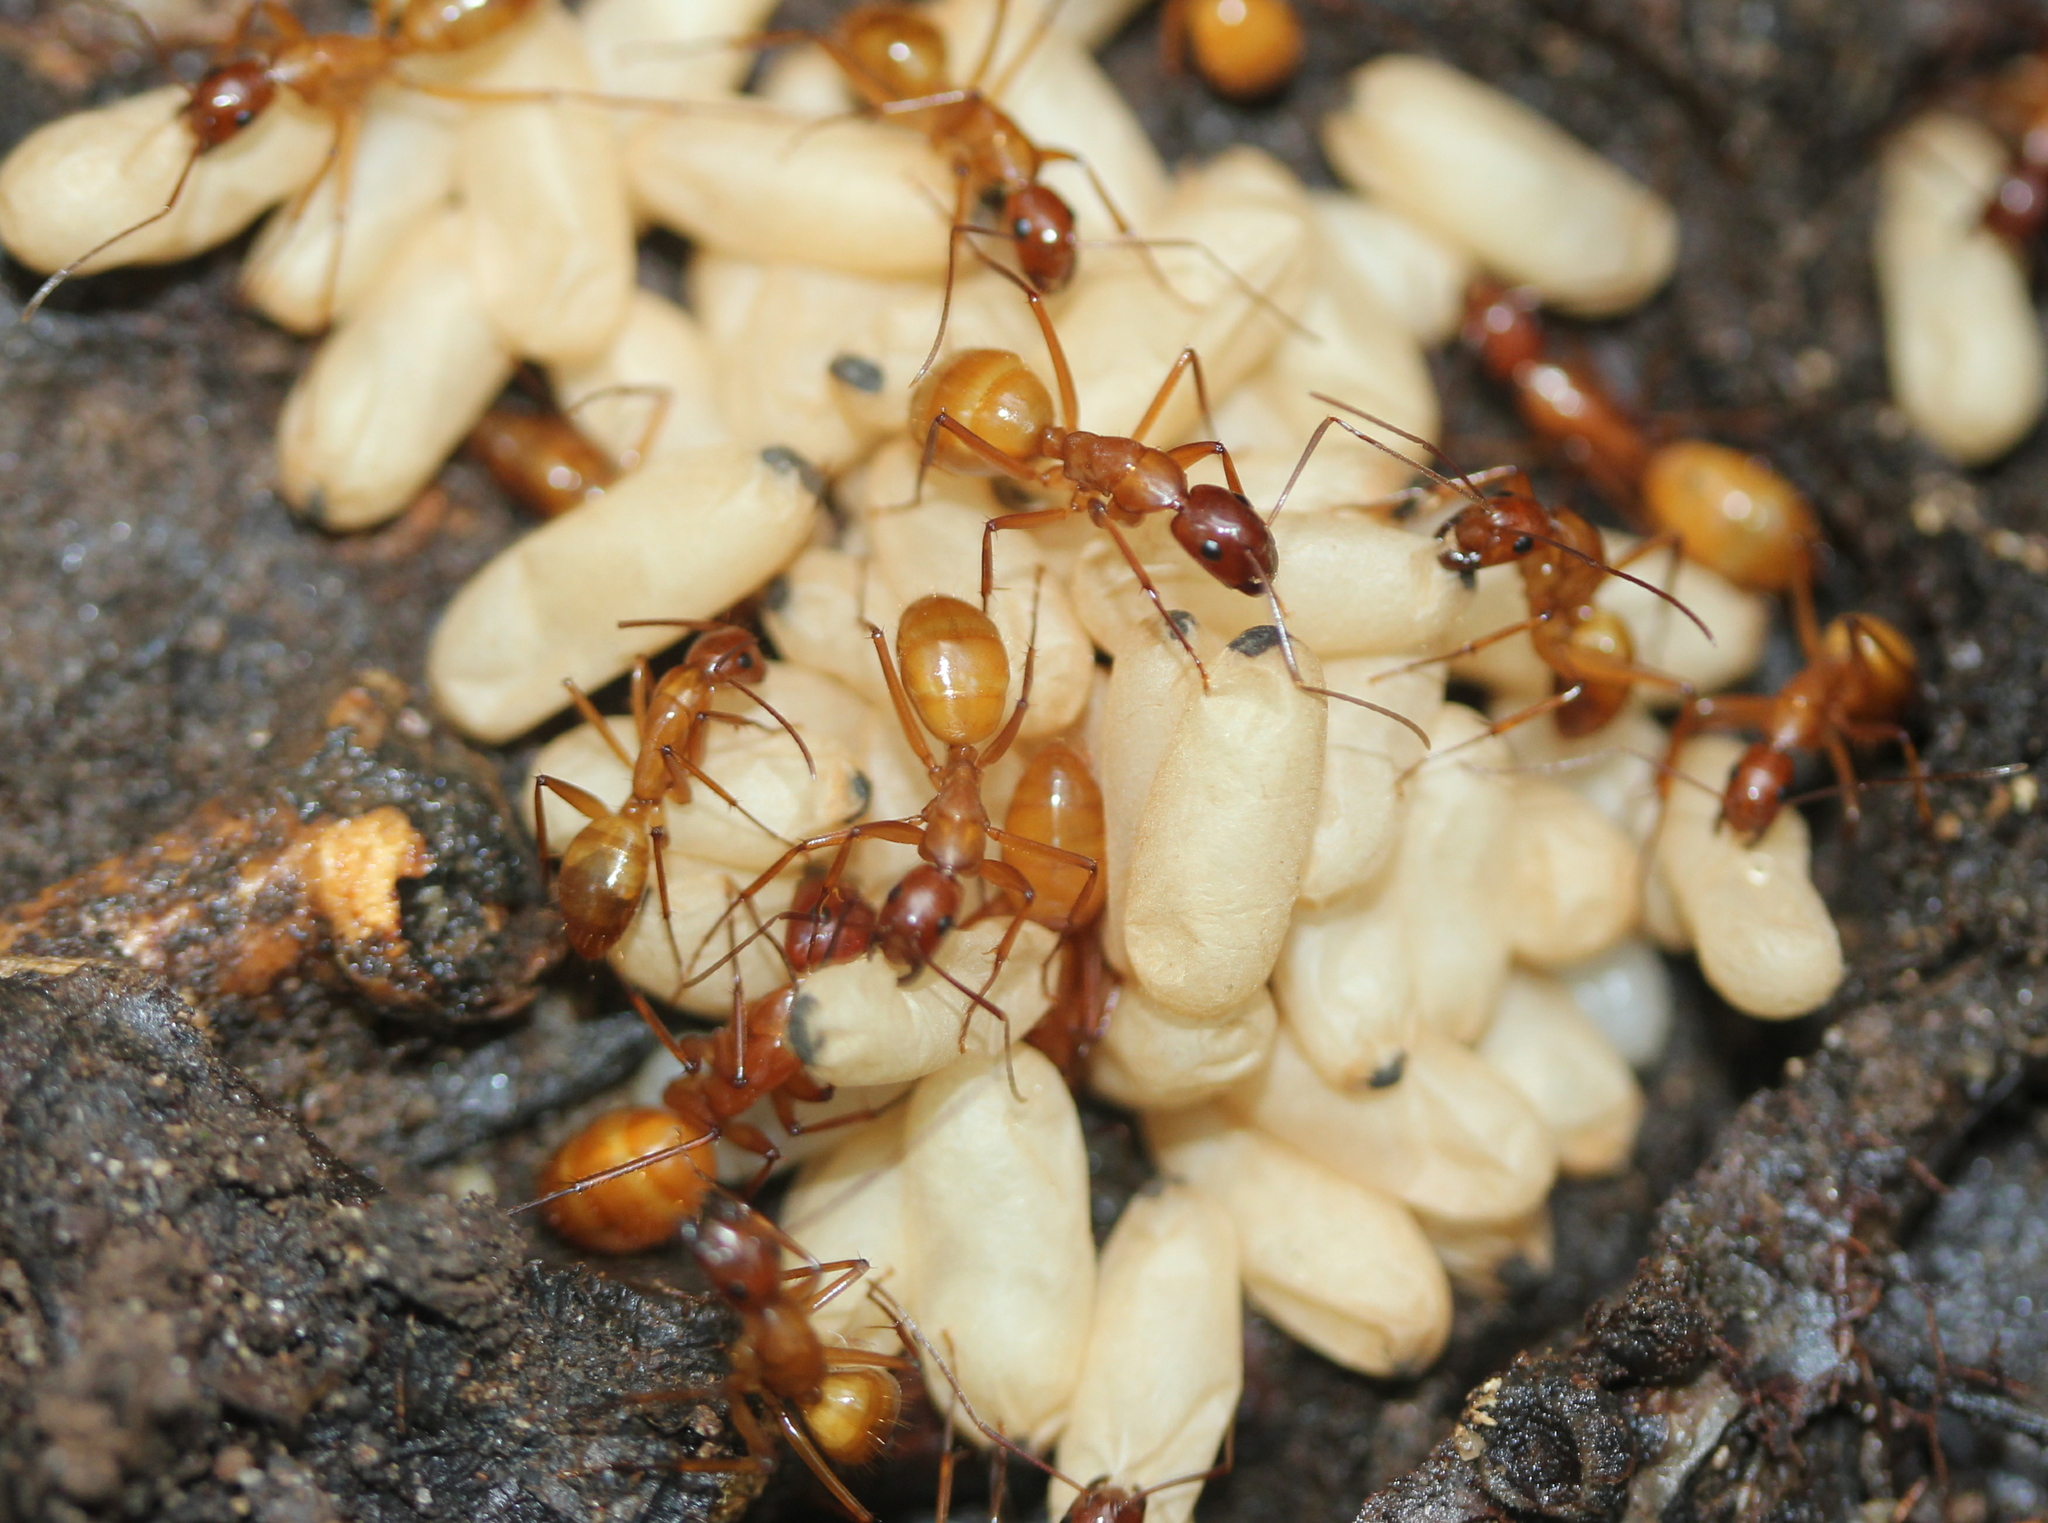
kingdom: Animalia
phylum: Arthropoda
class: Insecta
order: Hymenoptera
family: Formicidae
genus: Camponotus
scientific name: Camponotus castaneus
